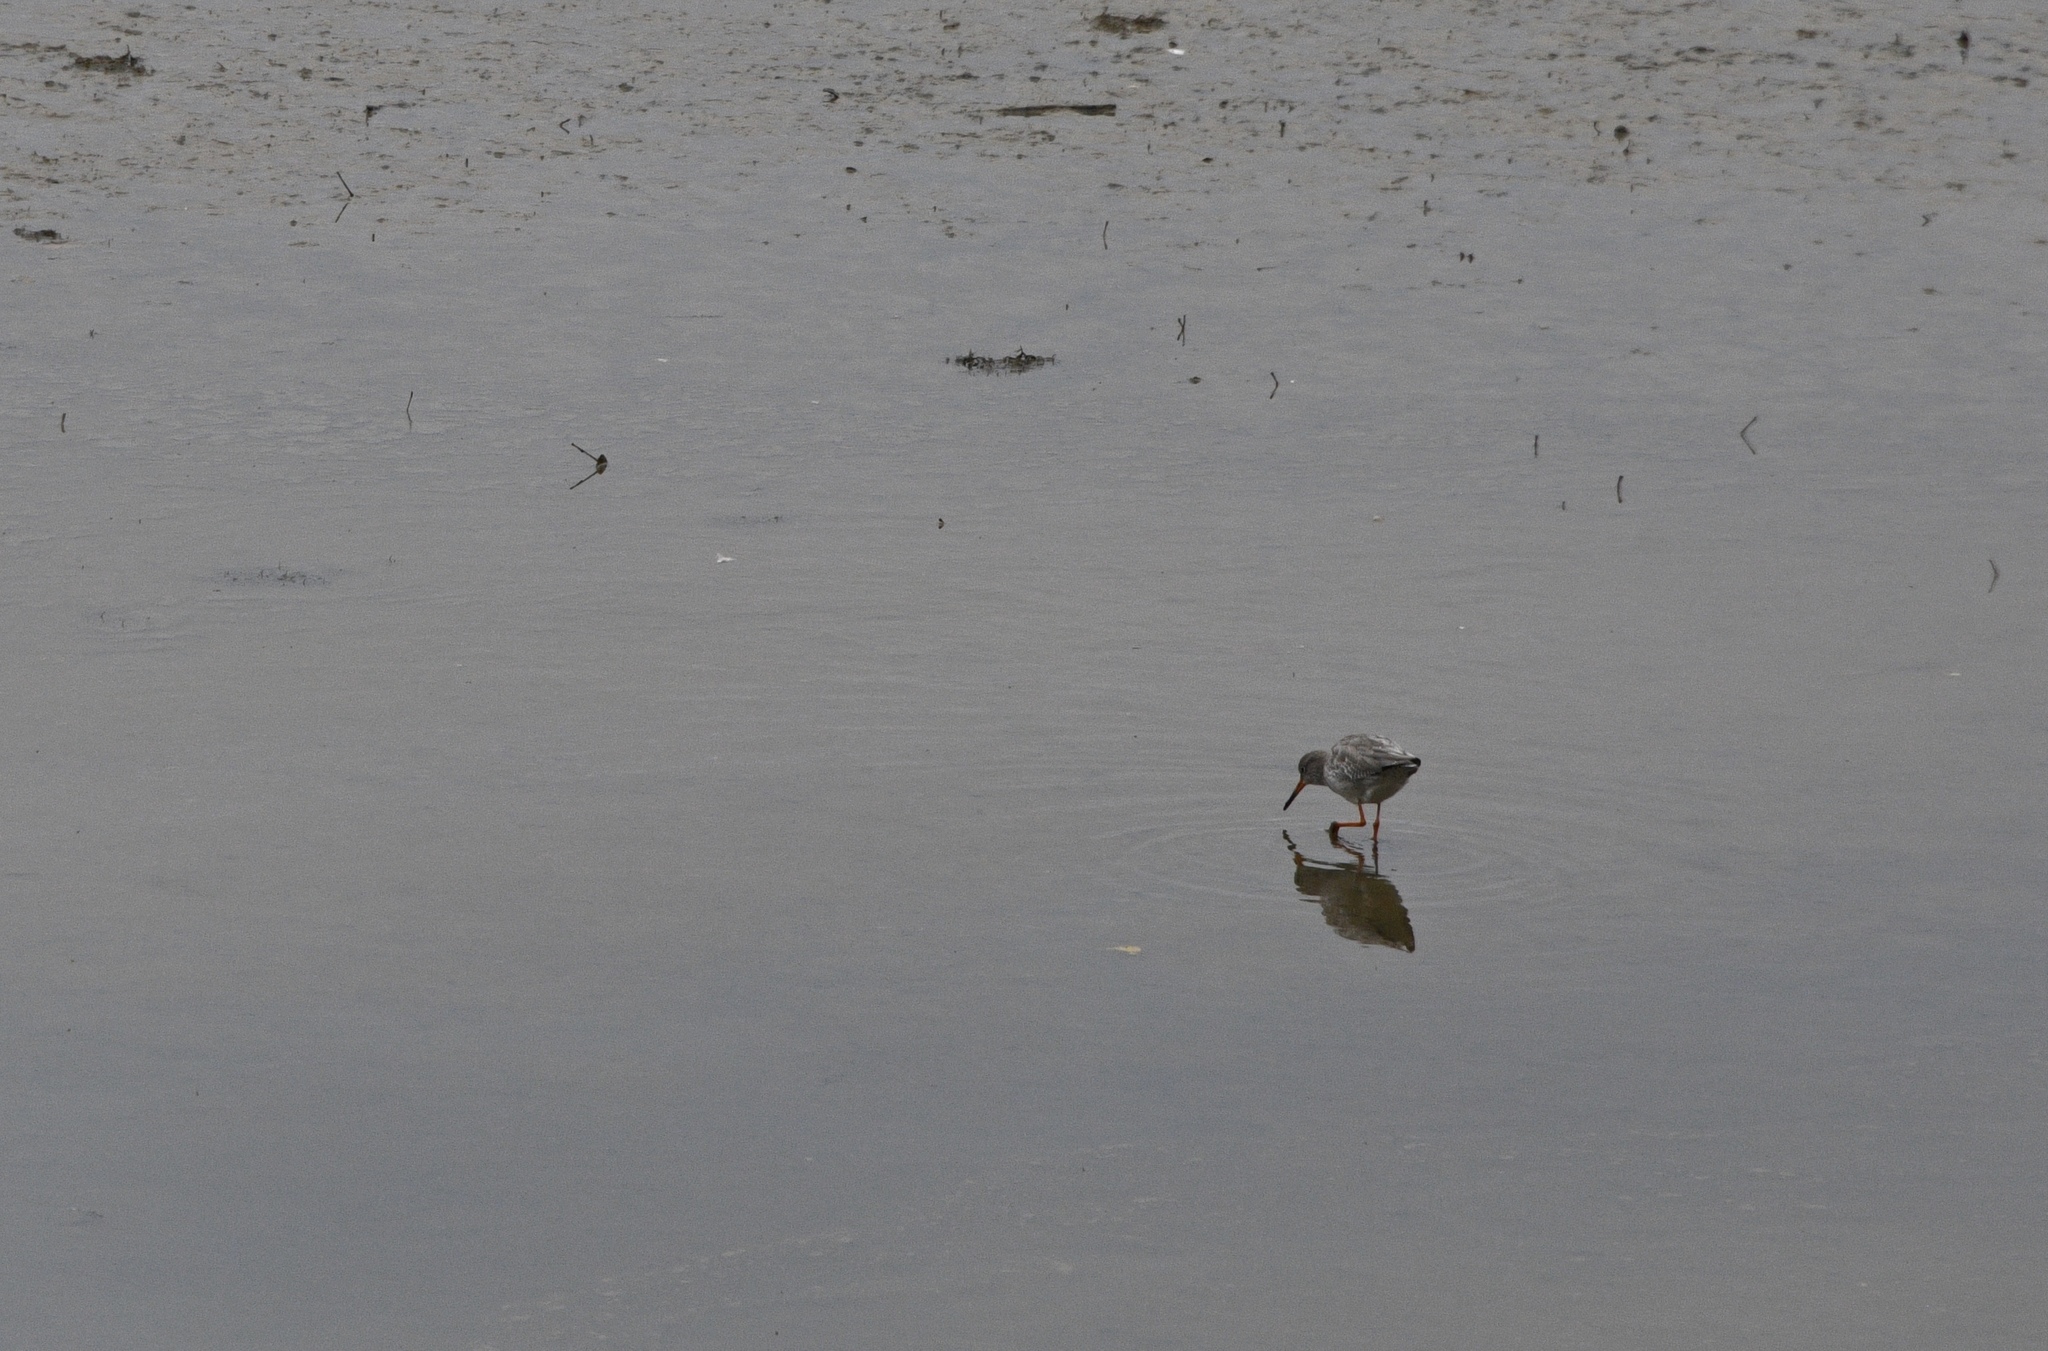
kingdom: Animalia
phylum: Chordata
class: Aves
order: Charadriiformes
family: Scolopacidae
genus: Tringa
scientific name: Tringa totanus
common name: Common redshank
